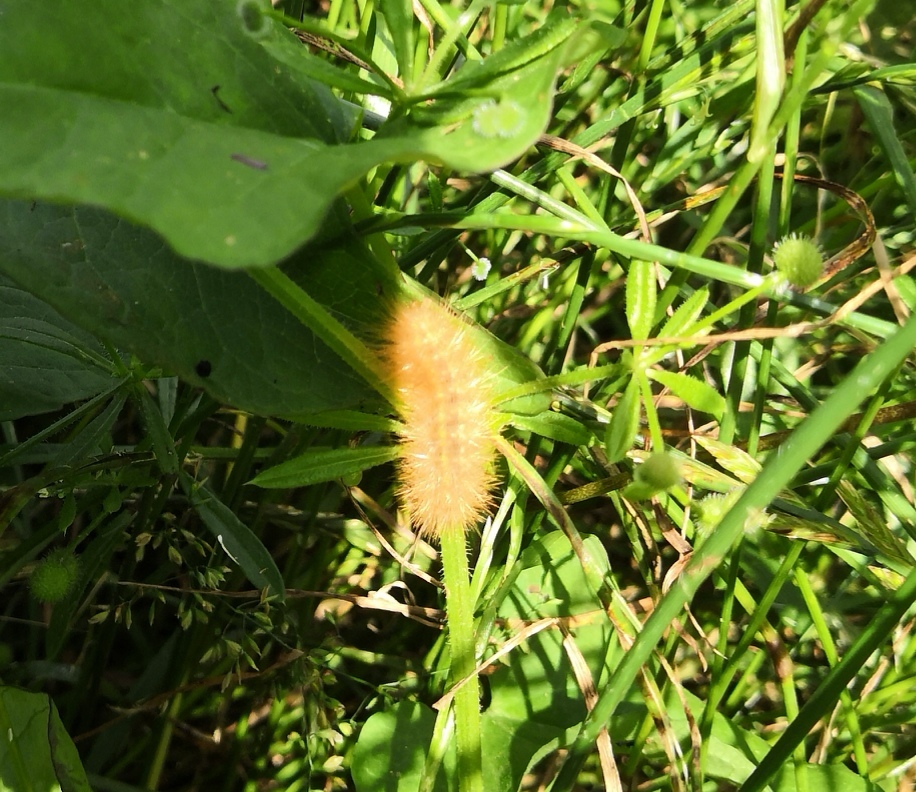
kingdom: Animalia
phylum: Arthropoda
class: Insecta
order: Lepidoptera
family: Erebidae
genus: Phragmatobia
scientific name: Phragmatobia fuliginosa
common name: Ruby tiger
